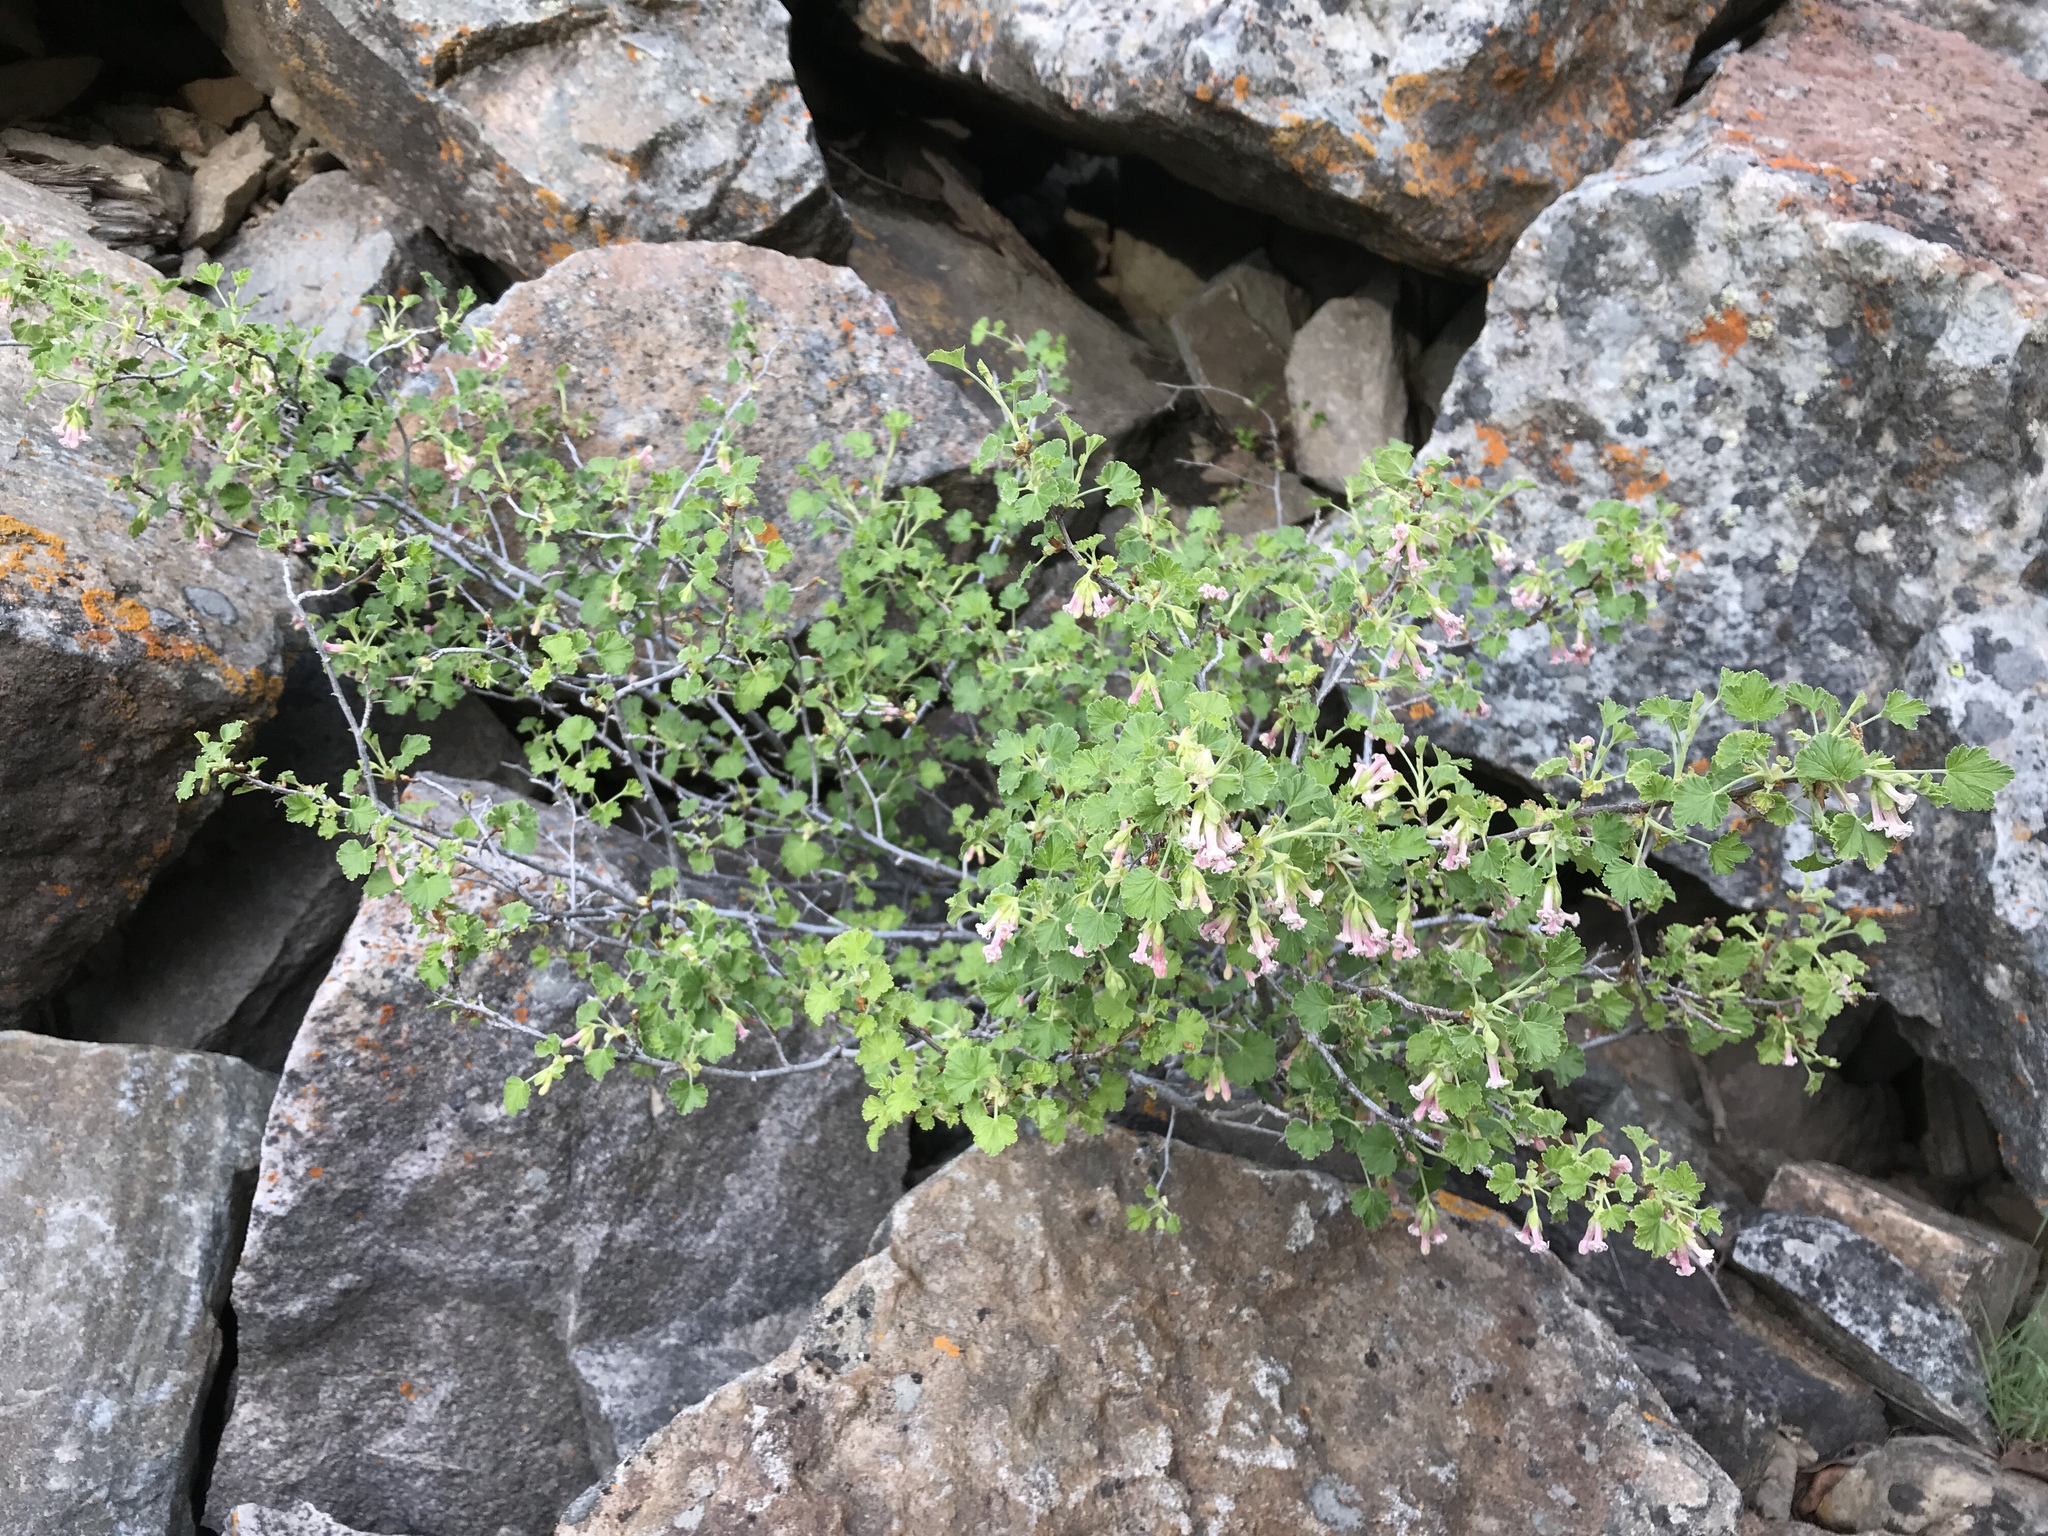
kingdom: Plantae
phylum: Tracheophyta
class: Magnoliopsida
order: Saxifragales
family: Grossulariaceae
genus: Ribes
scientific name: Ribes cereum
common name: Wax currant
